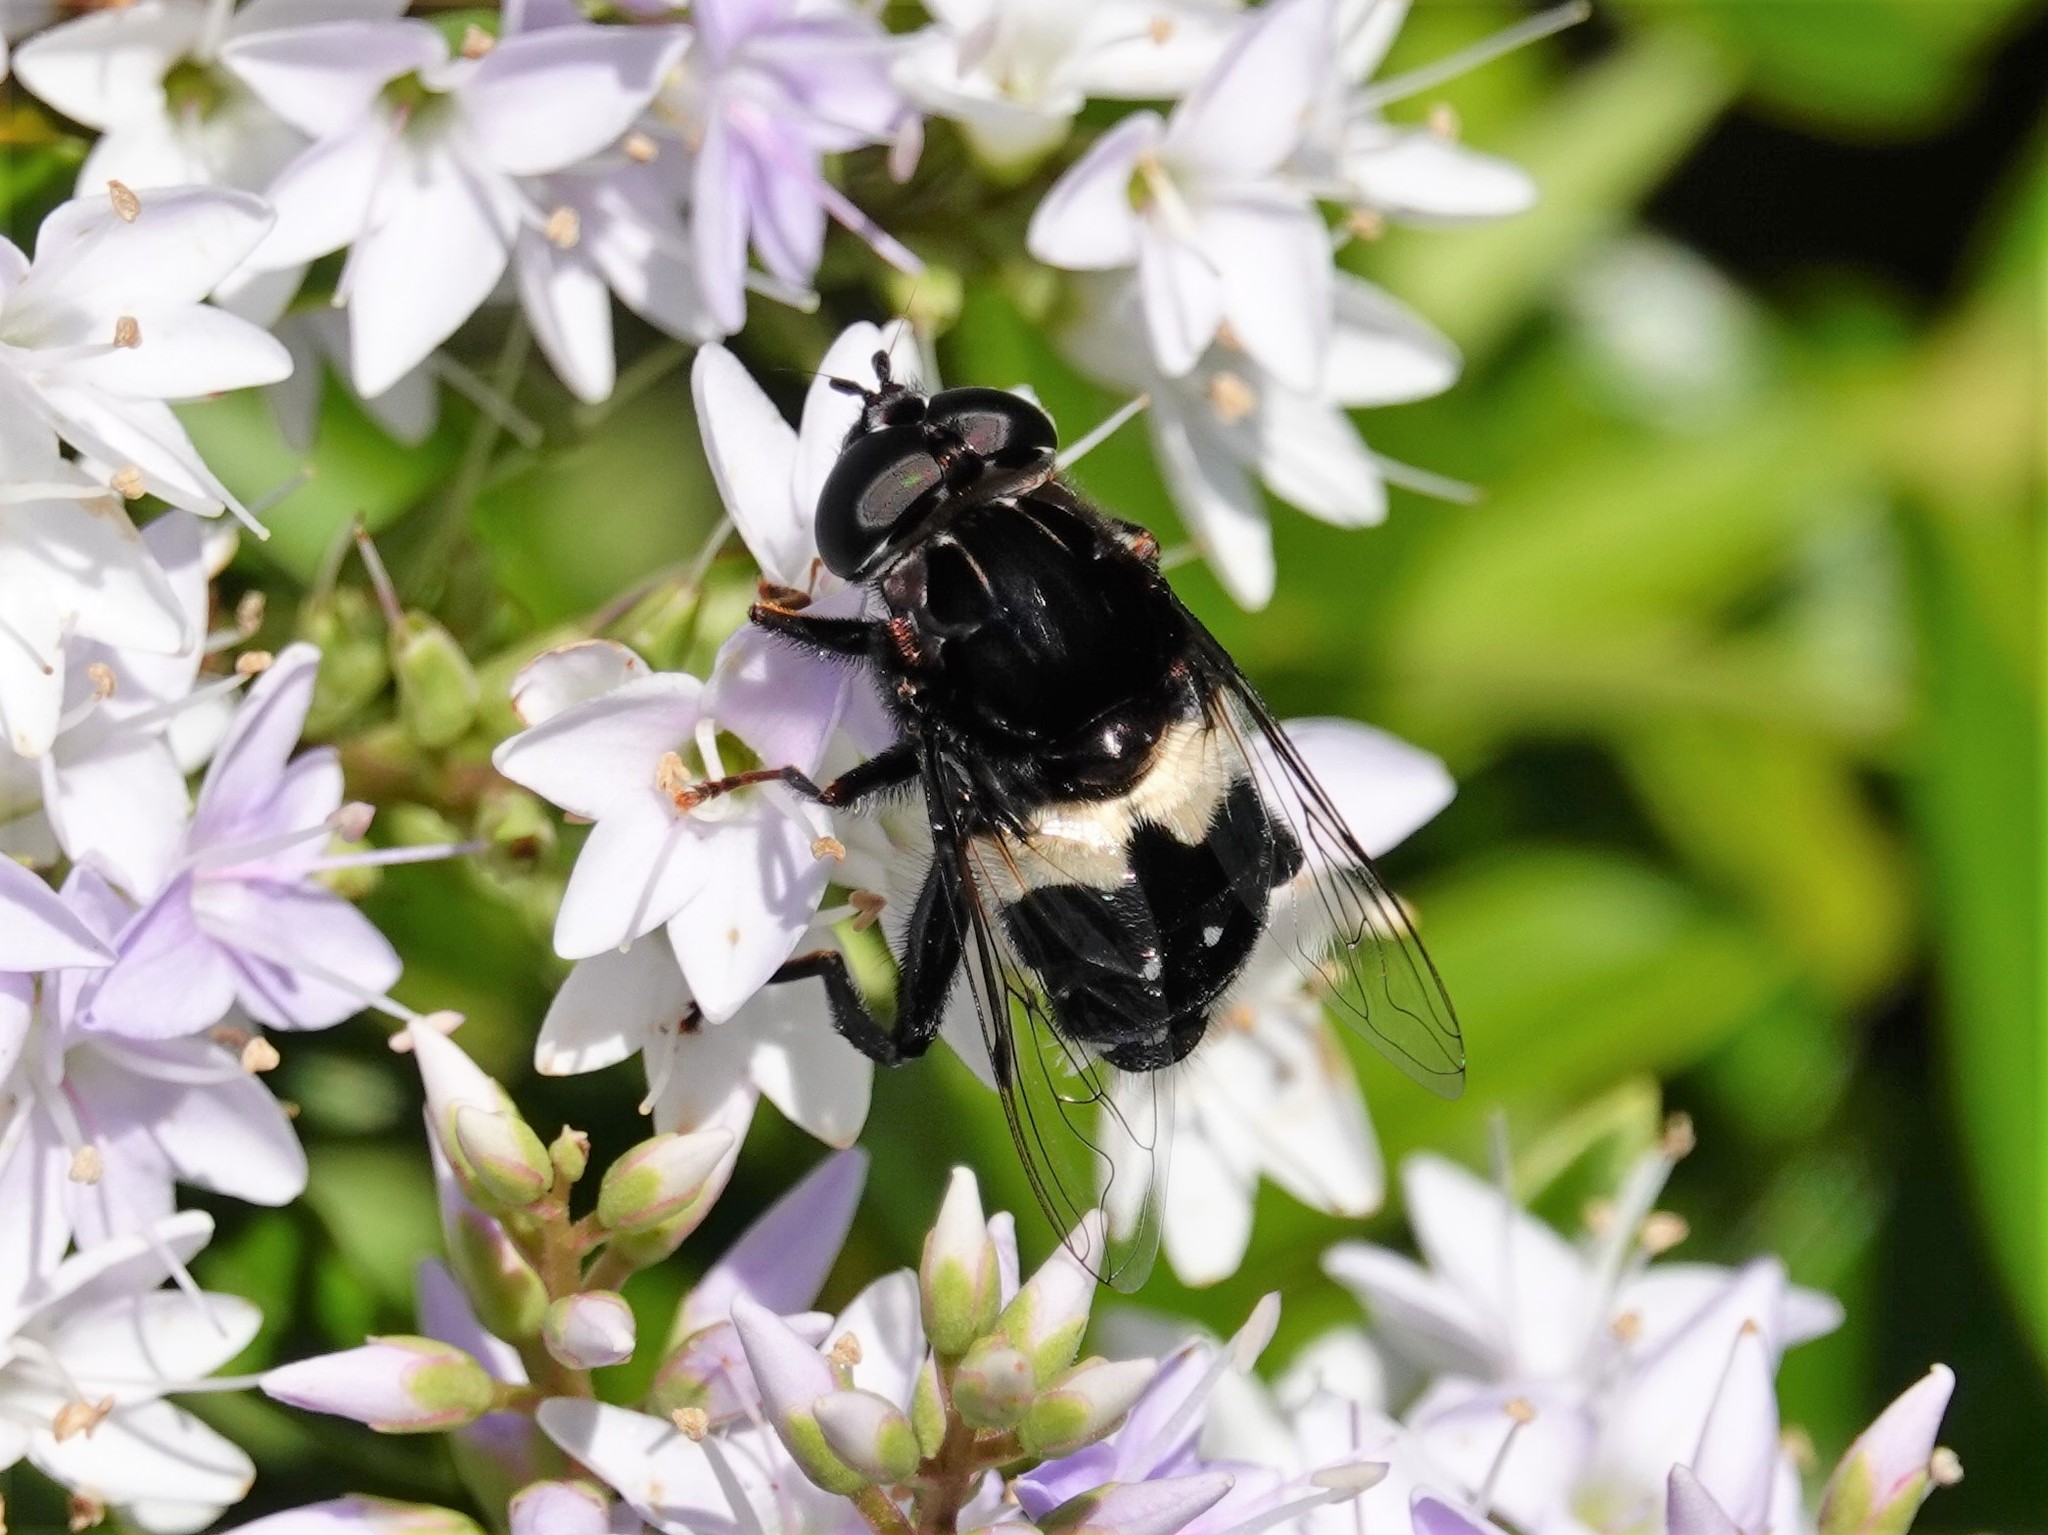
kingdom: Animalia
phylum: Arthropoda
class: Insecta
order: Diptera
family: Syrphidae
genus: Helophilus
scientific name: Helophilus cingulatus
